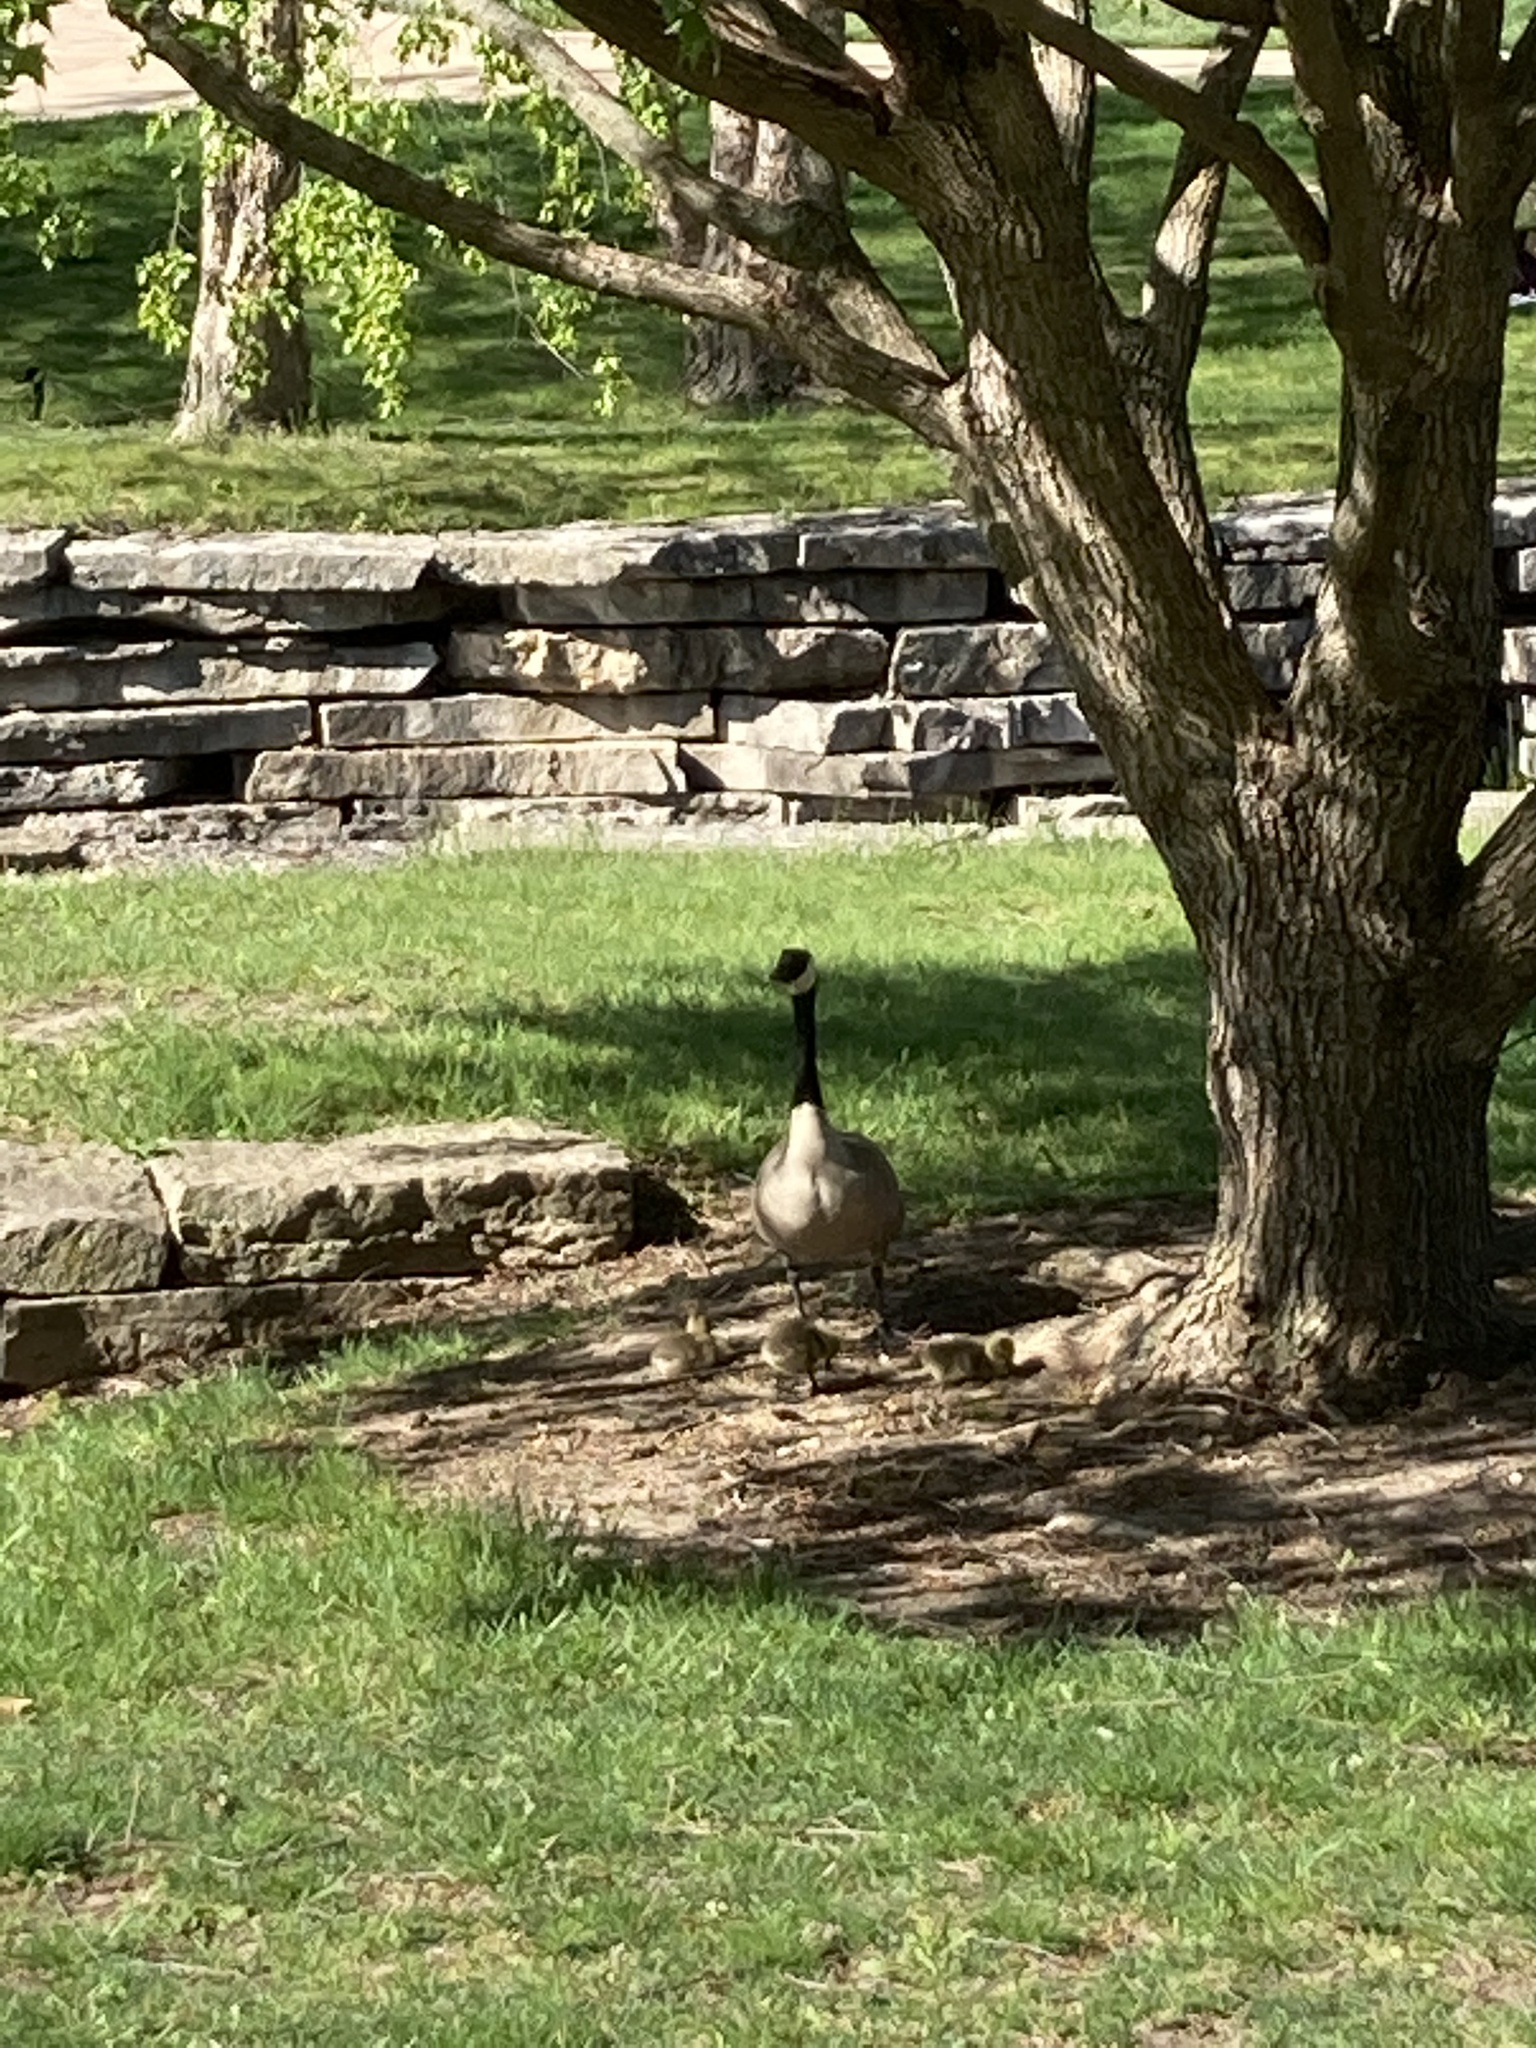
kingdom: Animalia
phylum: Chordata
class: Aves
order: Anseriformes
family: Anatidae
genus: Branta
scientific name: Branta canadensis
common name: Canada goose
